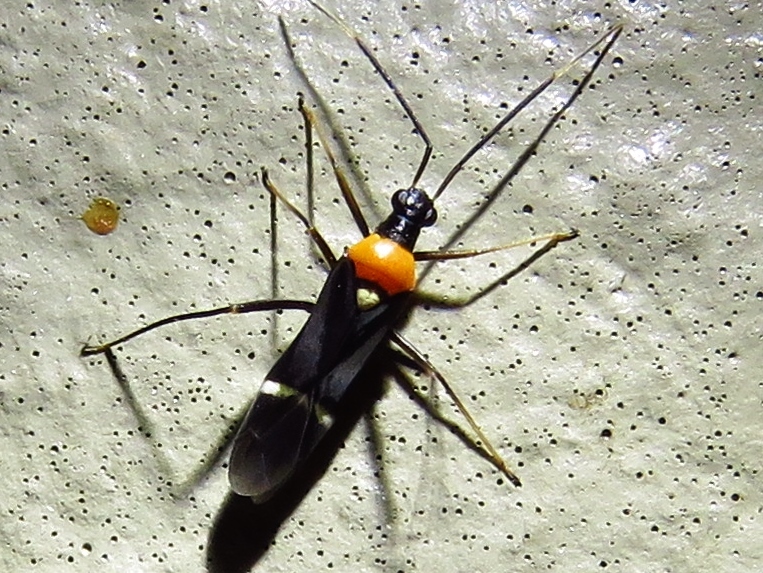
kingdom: Animalia
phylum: Arthropoda
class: Insecta
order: Hemiptera
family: Miridae
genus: Pseudoxenetus
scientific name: Pseudoxenetus regalis
